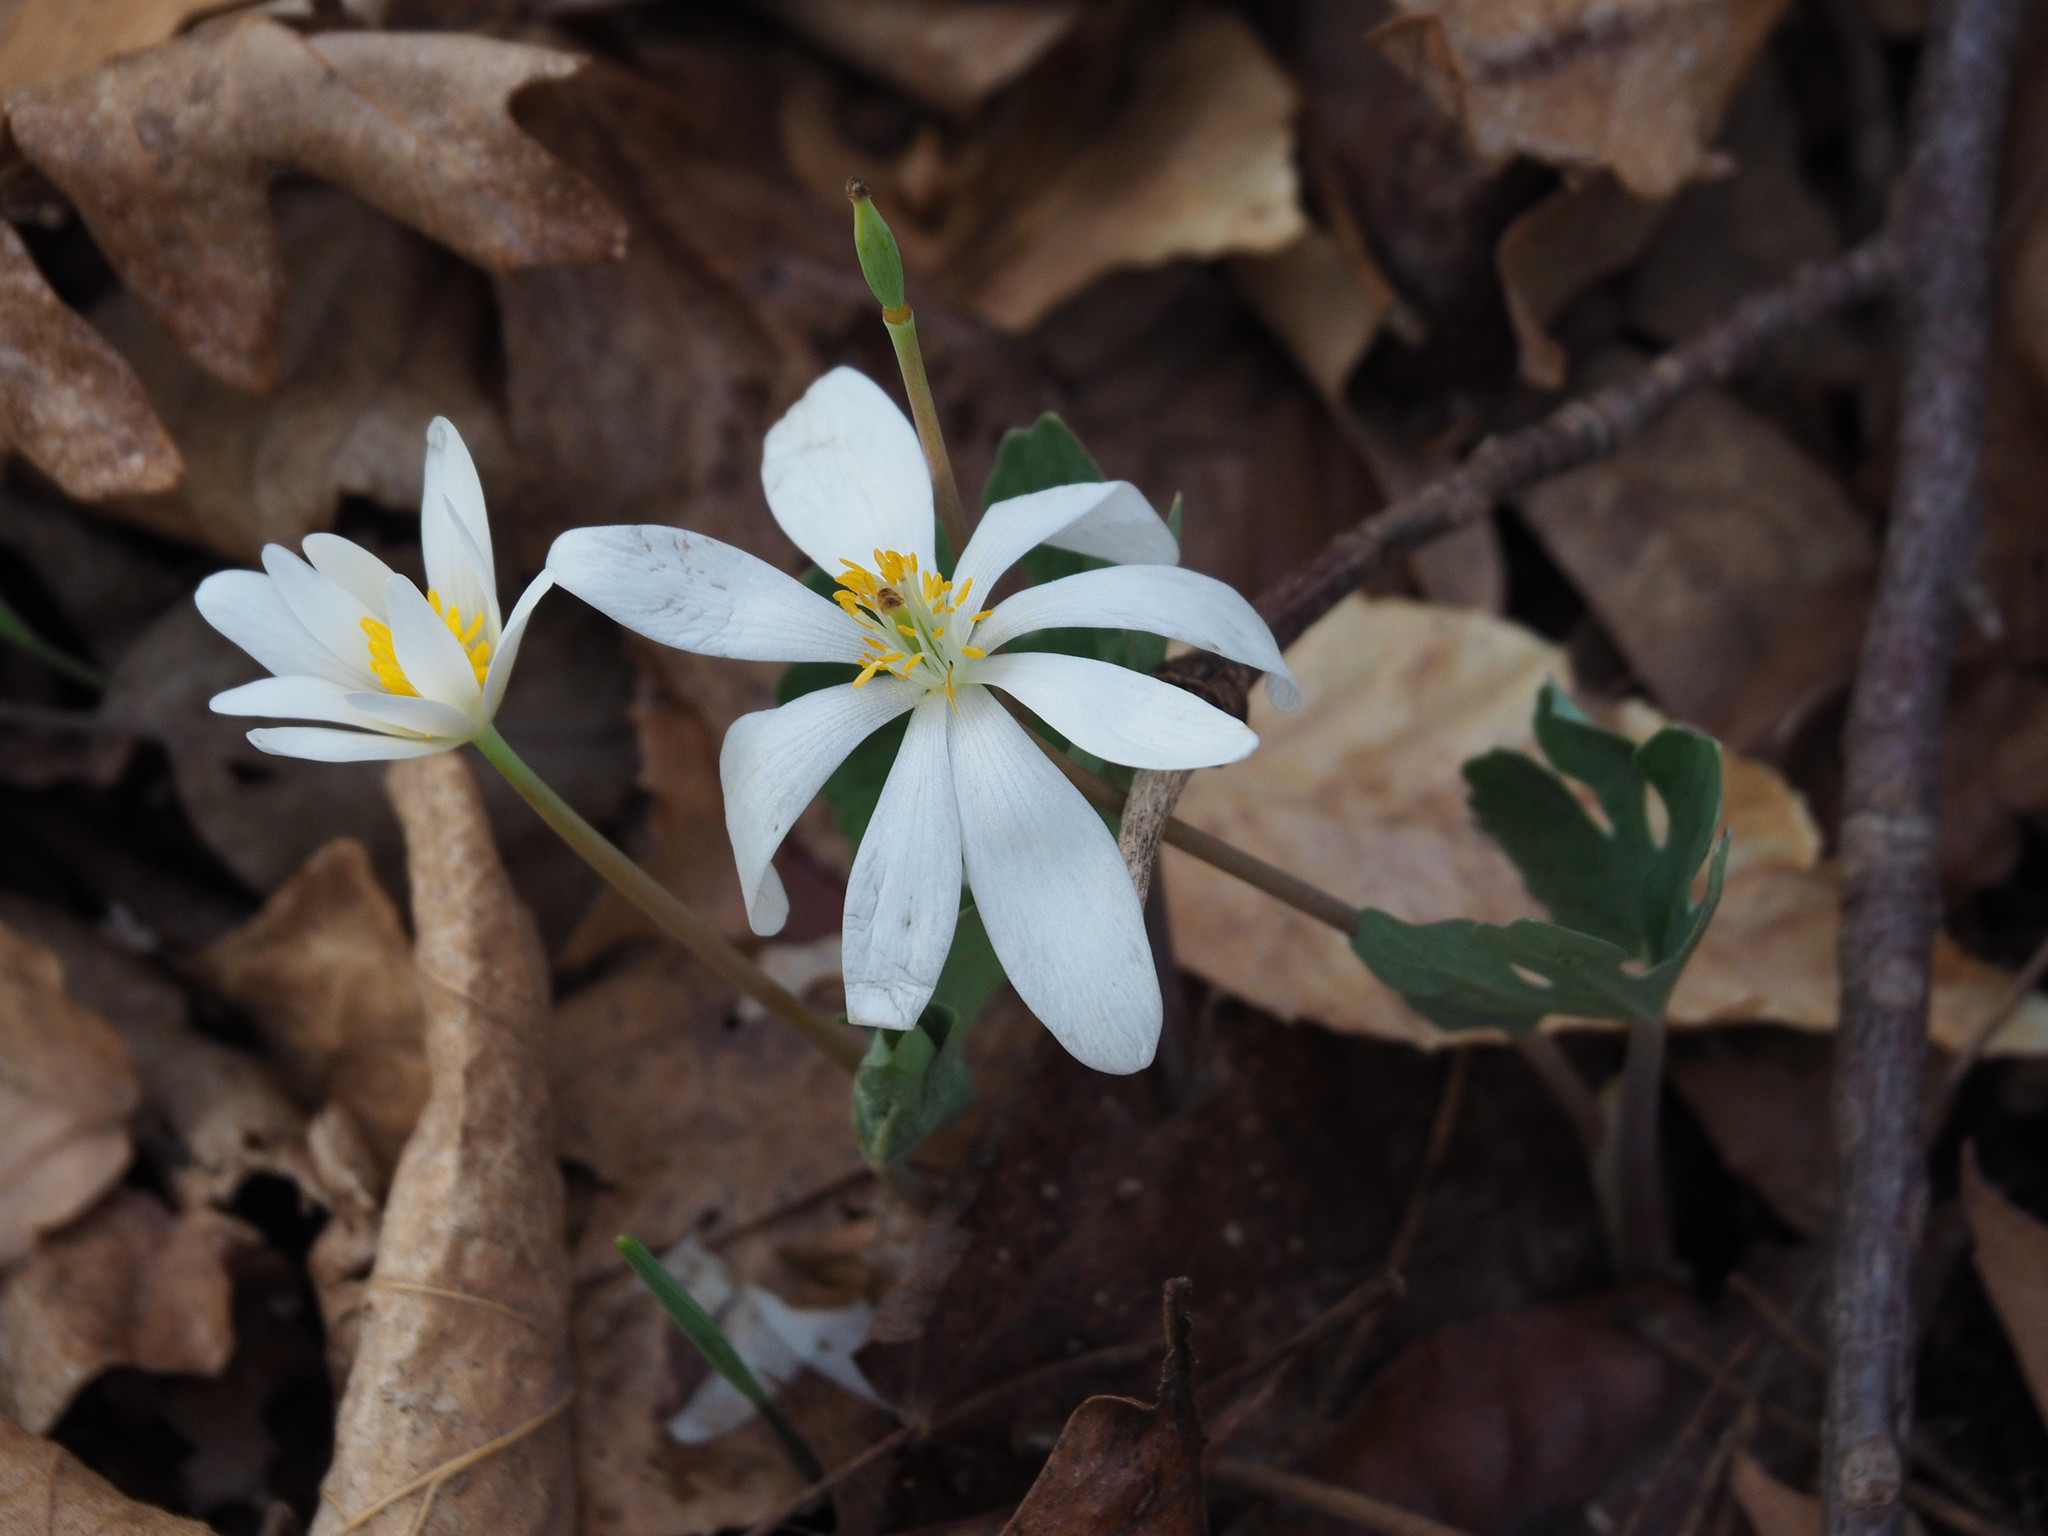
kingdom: Plantae
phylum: Tracheophyta
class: Magnoliopsida
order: Ranunculales
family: Papaveraceae
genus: Sanguinaria
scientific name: Sanguinaria canadensis
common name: Bloodroot
